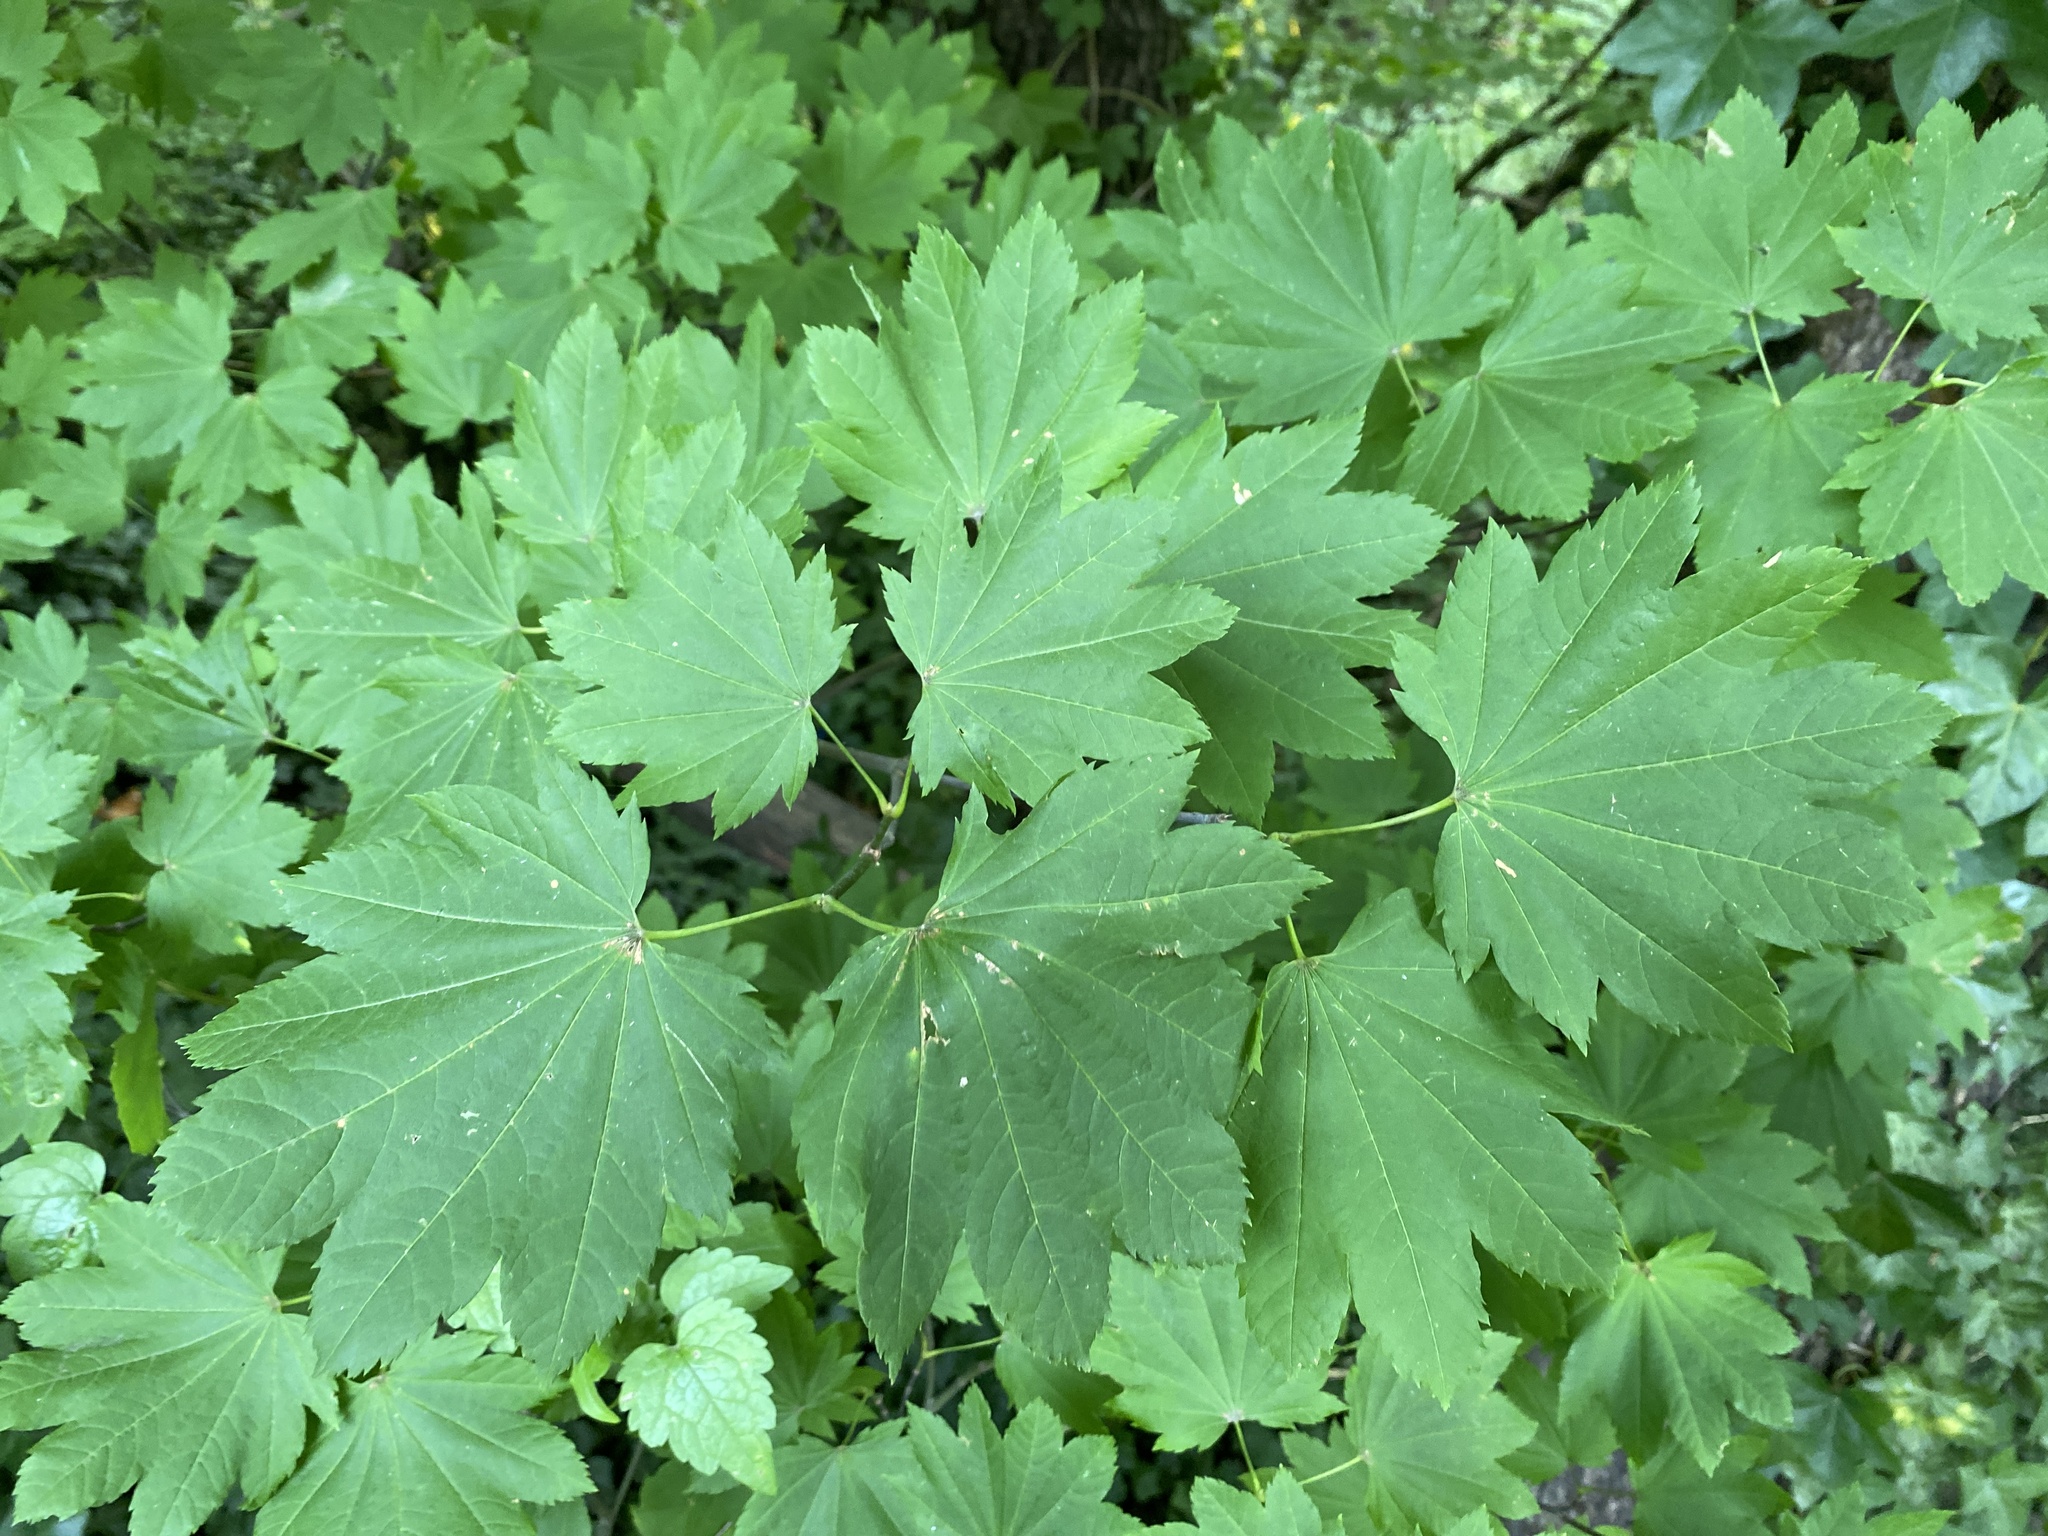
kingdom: Plantae
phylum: Tracheophyta
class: Magnoliopsida
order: Sapindales
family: Sapindaceae
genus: Acer
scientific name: Acer circinatum
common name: Vine maple
